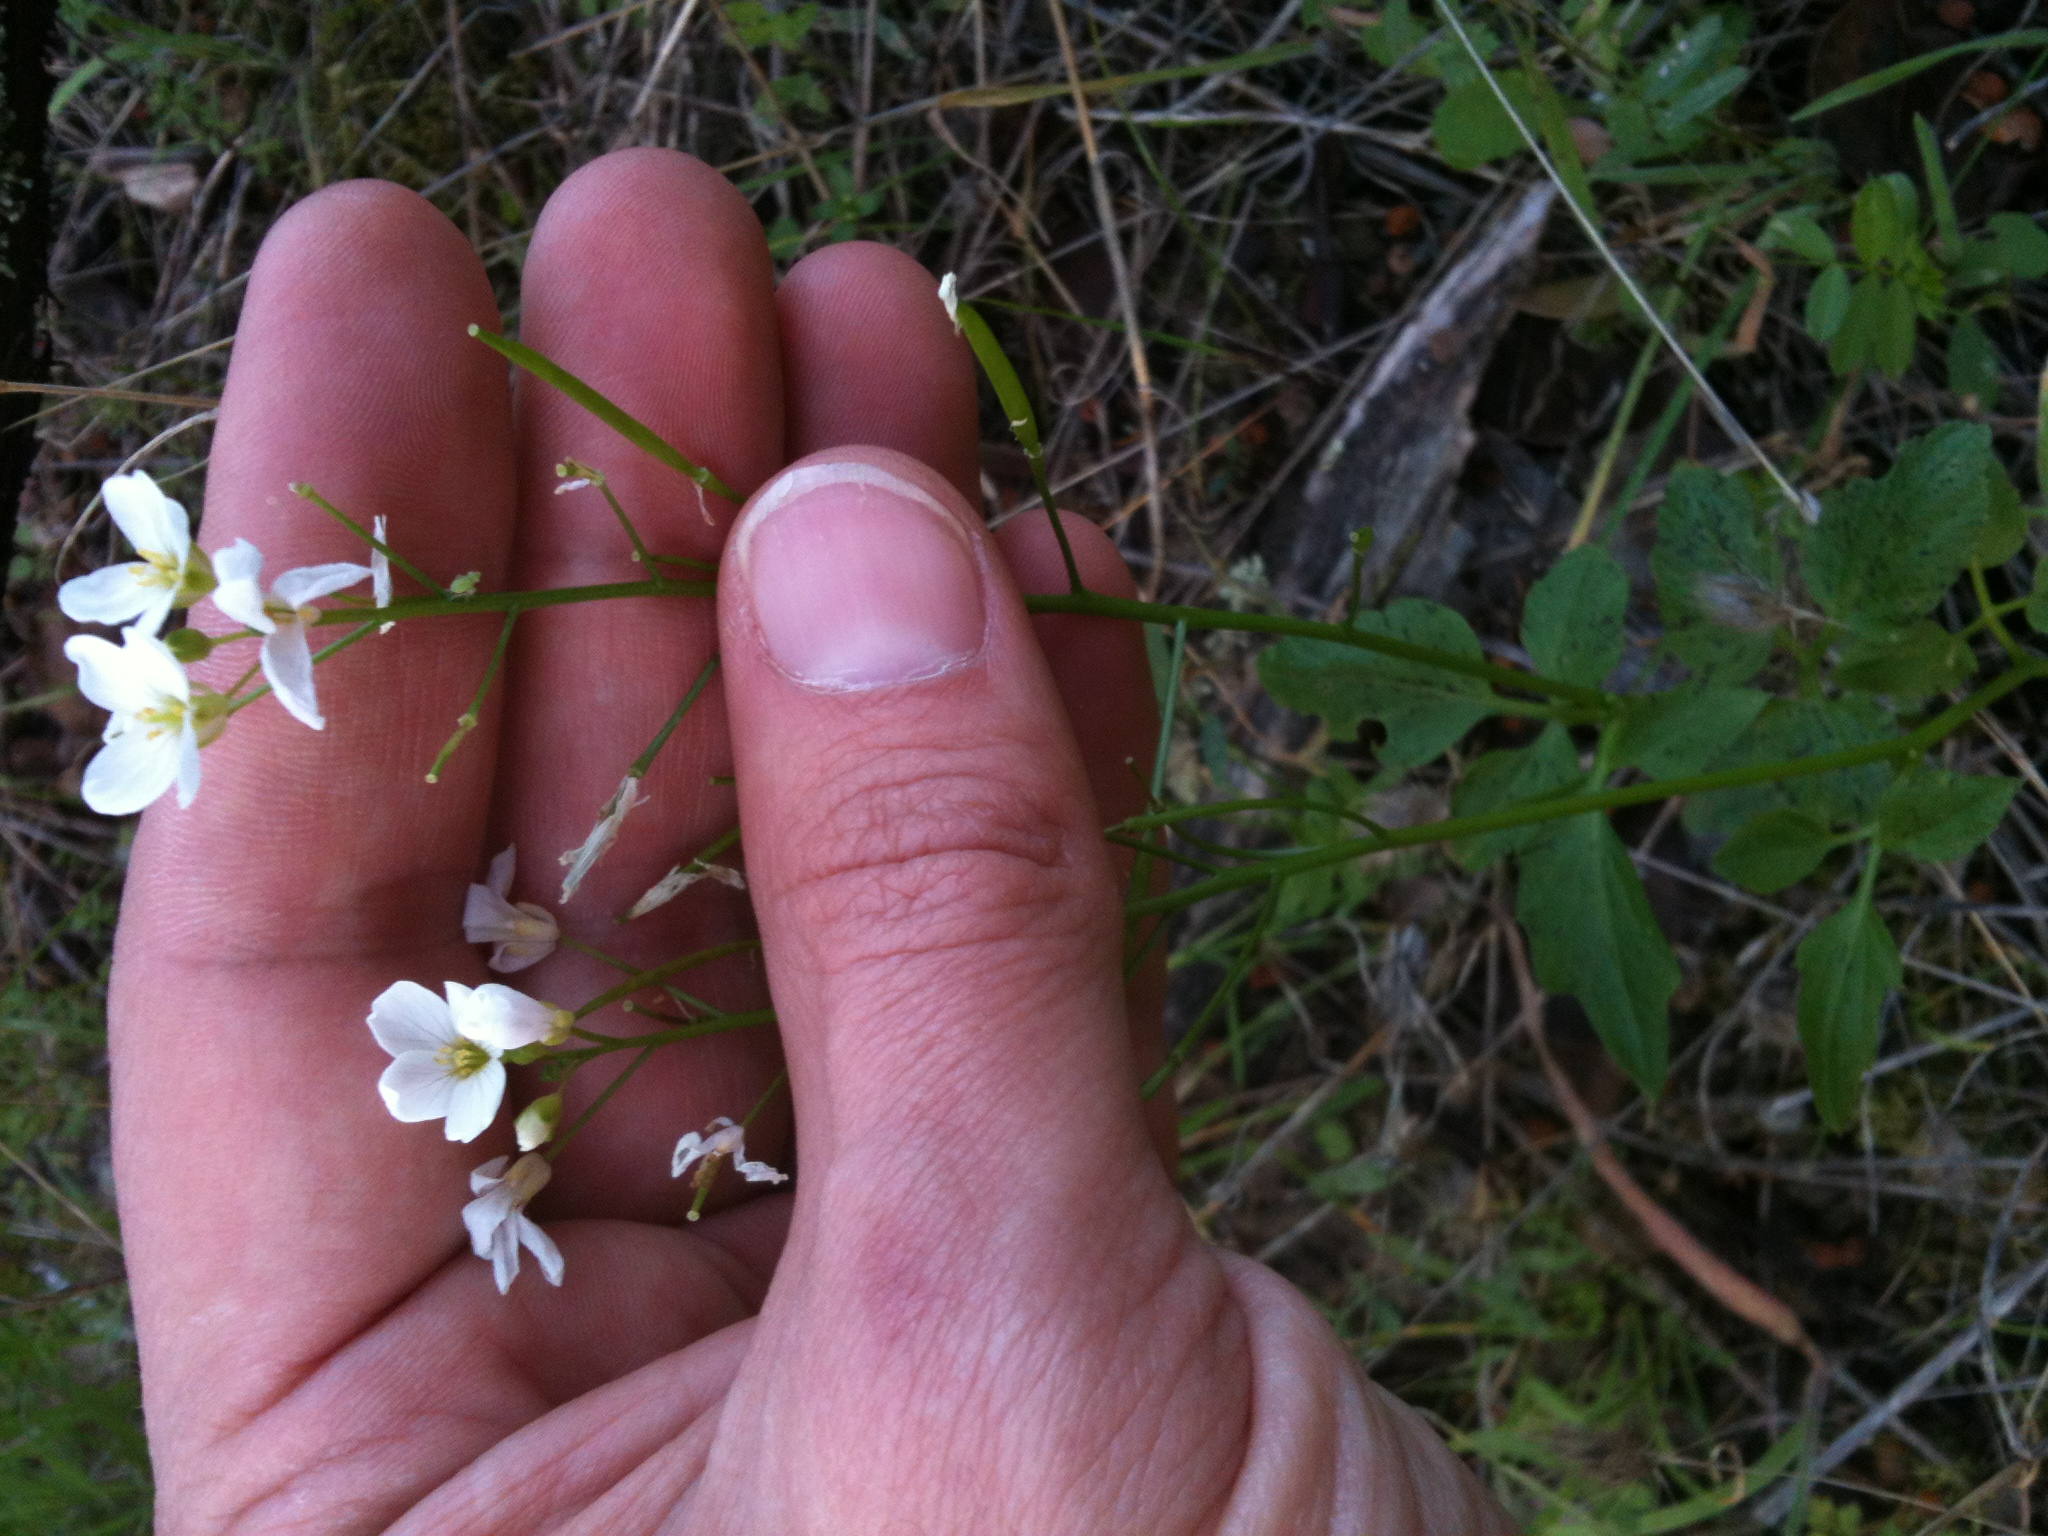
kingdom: Plantae
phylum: Tracheophyta
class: Magnoliopsida
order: Brassicales
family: Brassicaceae
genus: Cardamine
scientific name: Cardamine californica
